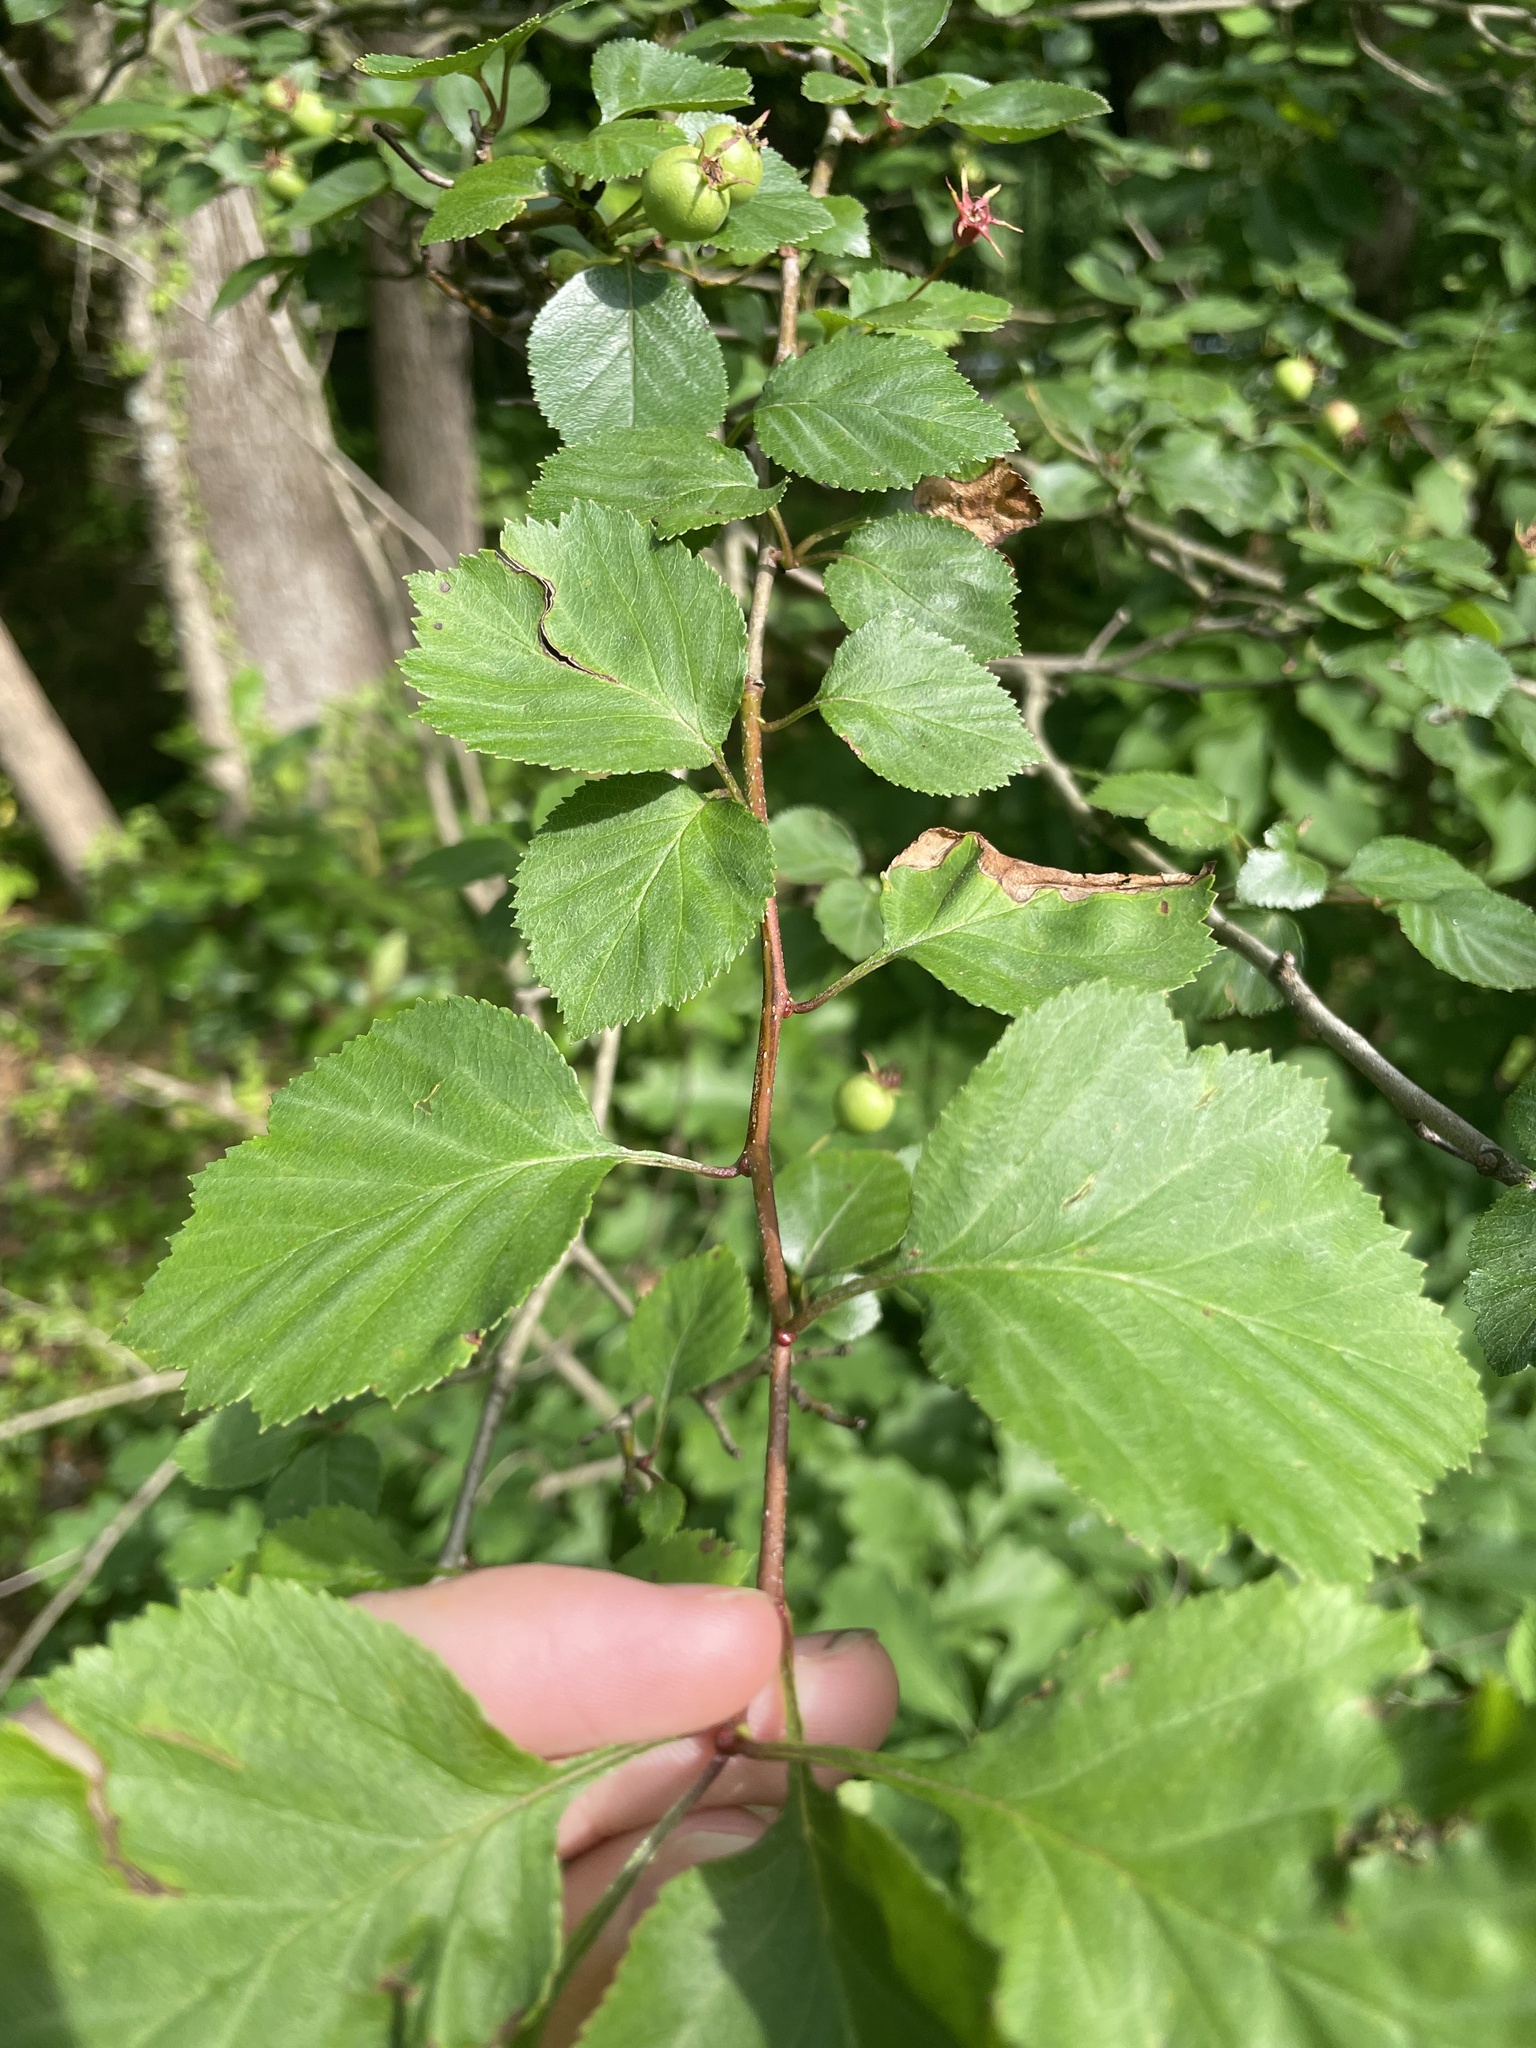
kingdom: Plantae
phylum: Tracheophyta
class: Magnoliopsida
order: Rosales
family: Rosaceae
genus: Crataegus
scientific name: Crataegus sororia
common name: Sister hawthorn
